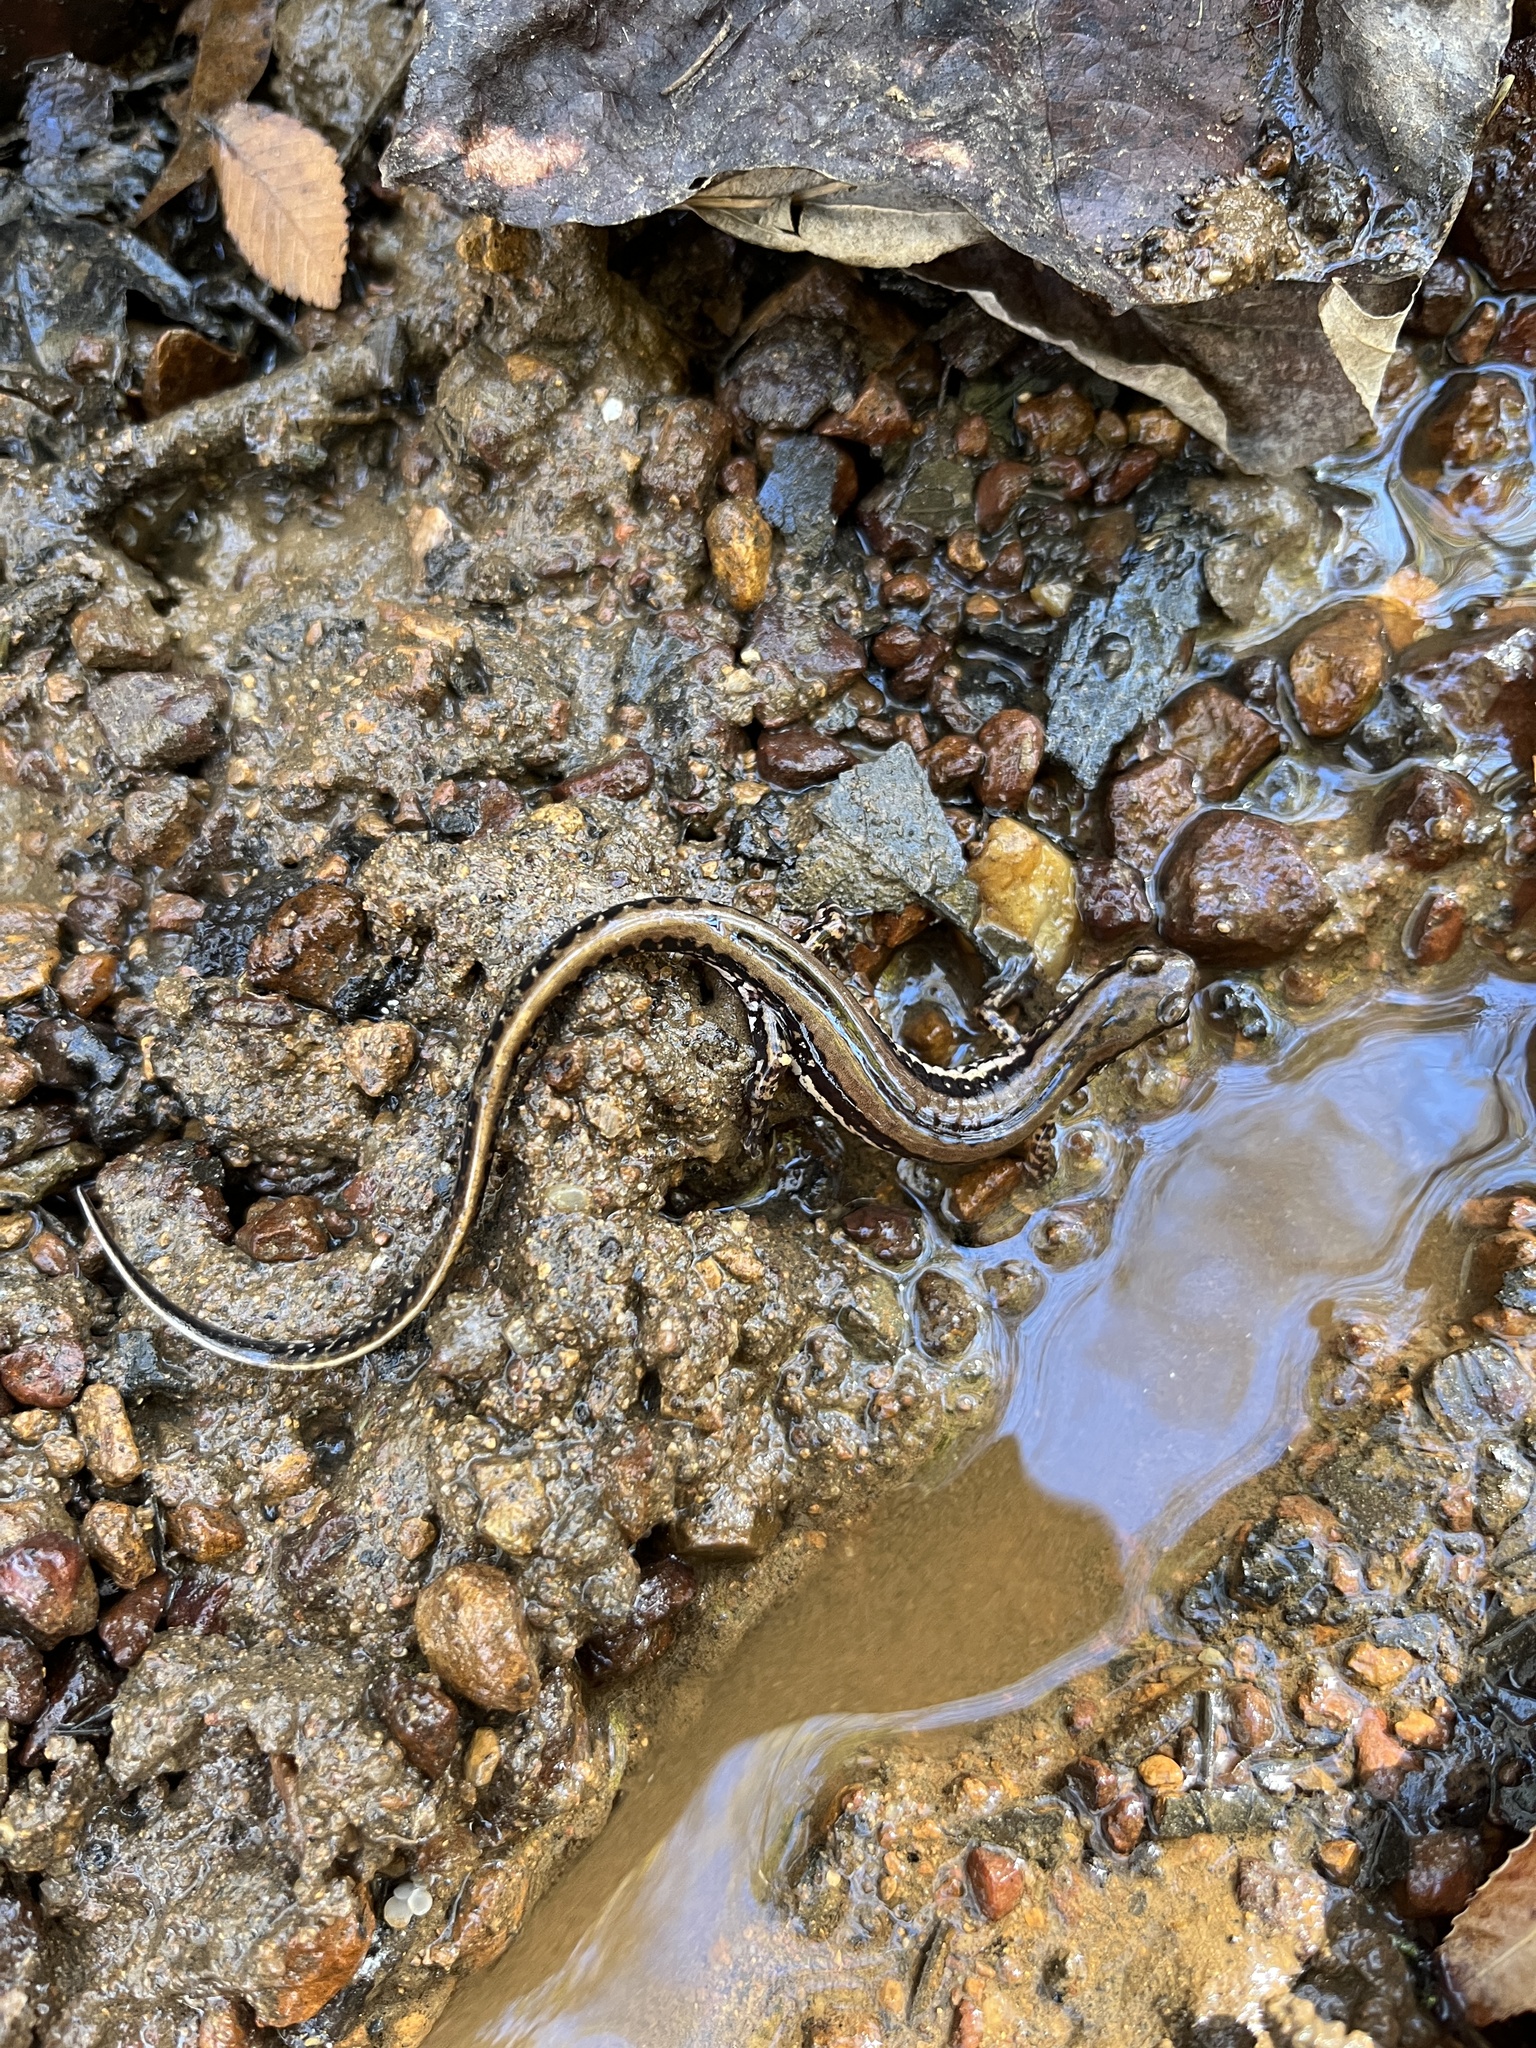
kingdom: Animalia
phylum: Chordata
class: Amphibia
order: Caudata
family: Plethodontidae
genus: Eurycea
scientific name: Eurycea guttolineata
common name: Three-lined salamander
